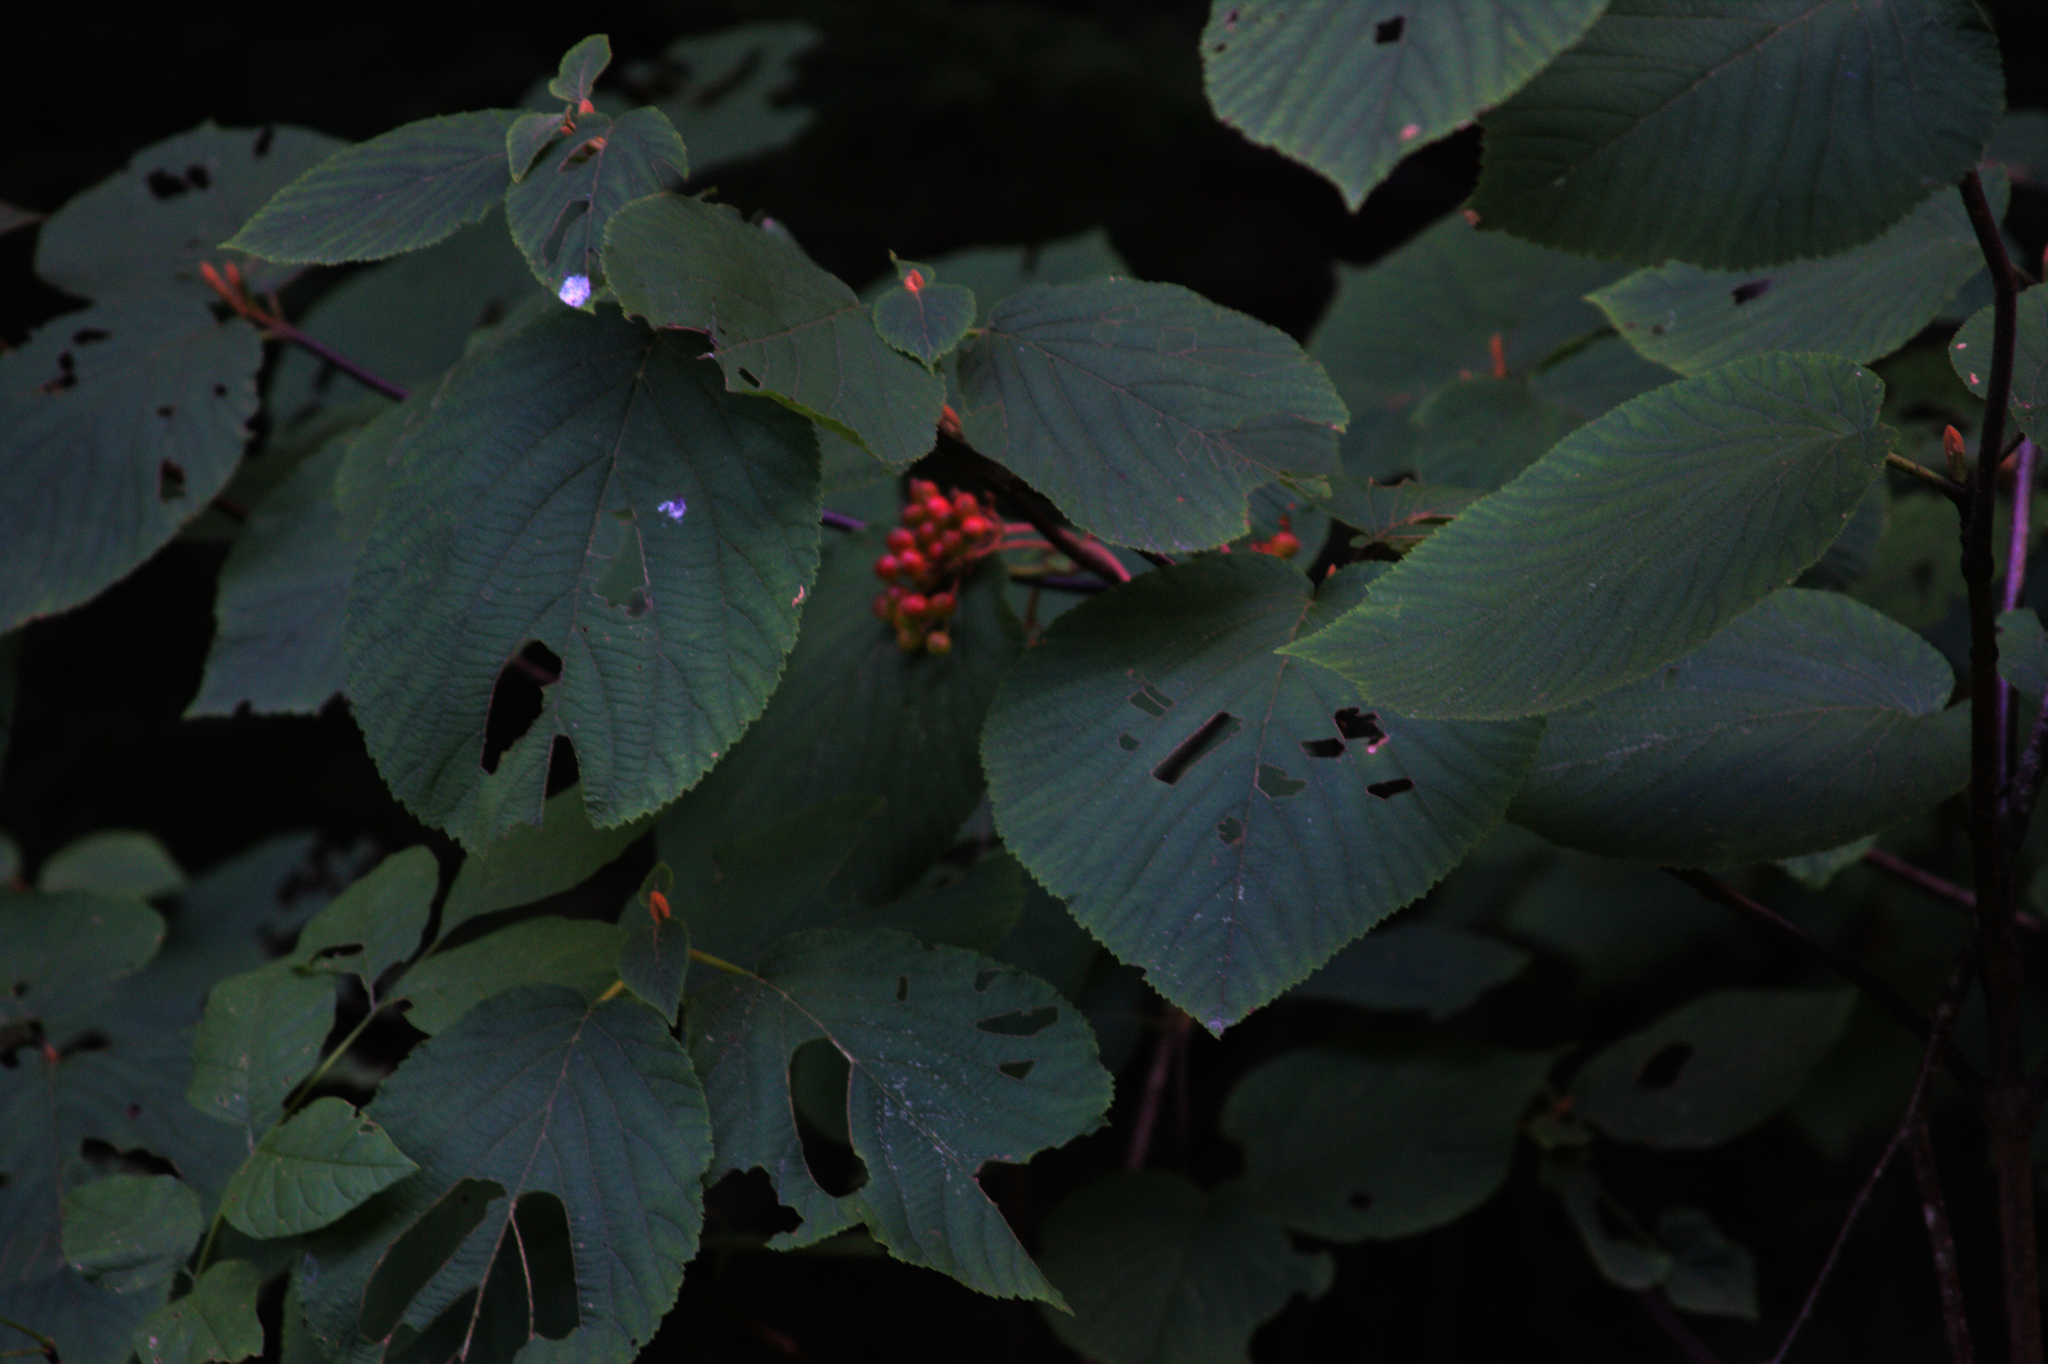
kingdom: Plantae
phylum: Tracheophyta
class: Magnoliopsida
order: Dipsacales
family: Viburnaceae
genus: Viburnum
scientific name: Viburnum lantanoides
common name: Hobblebush
